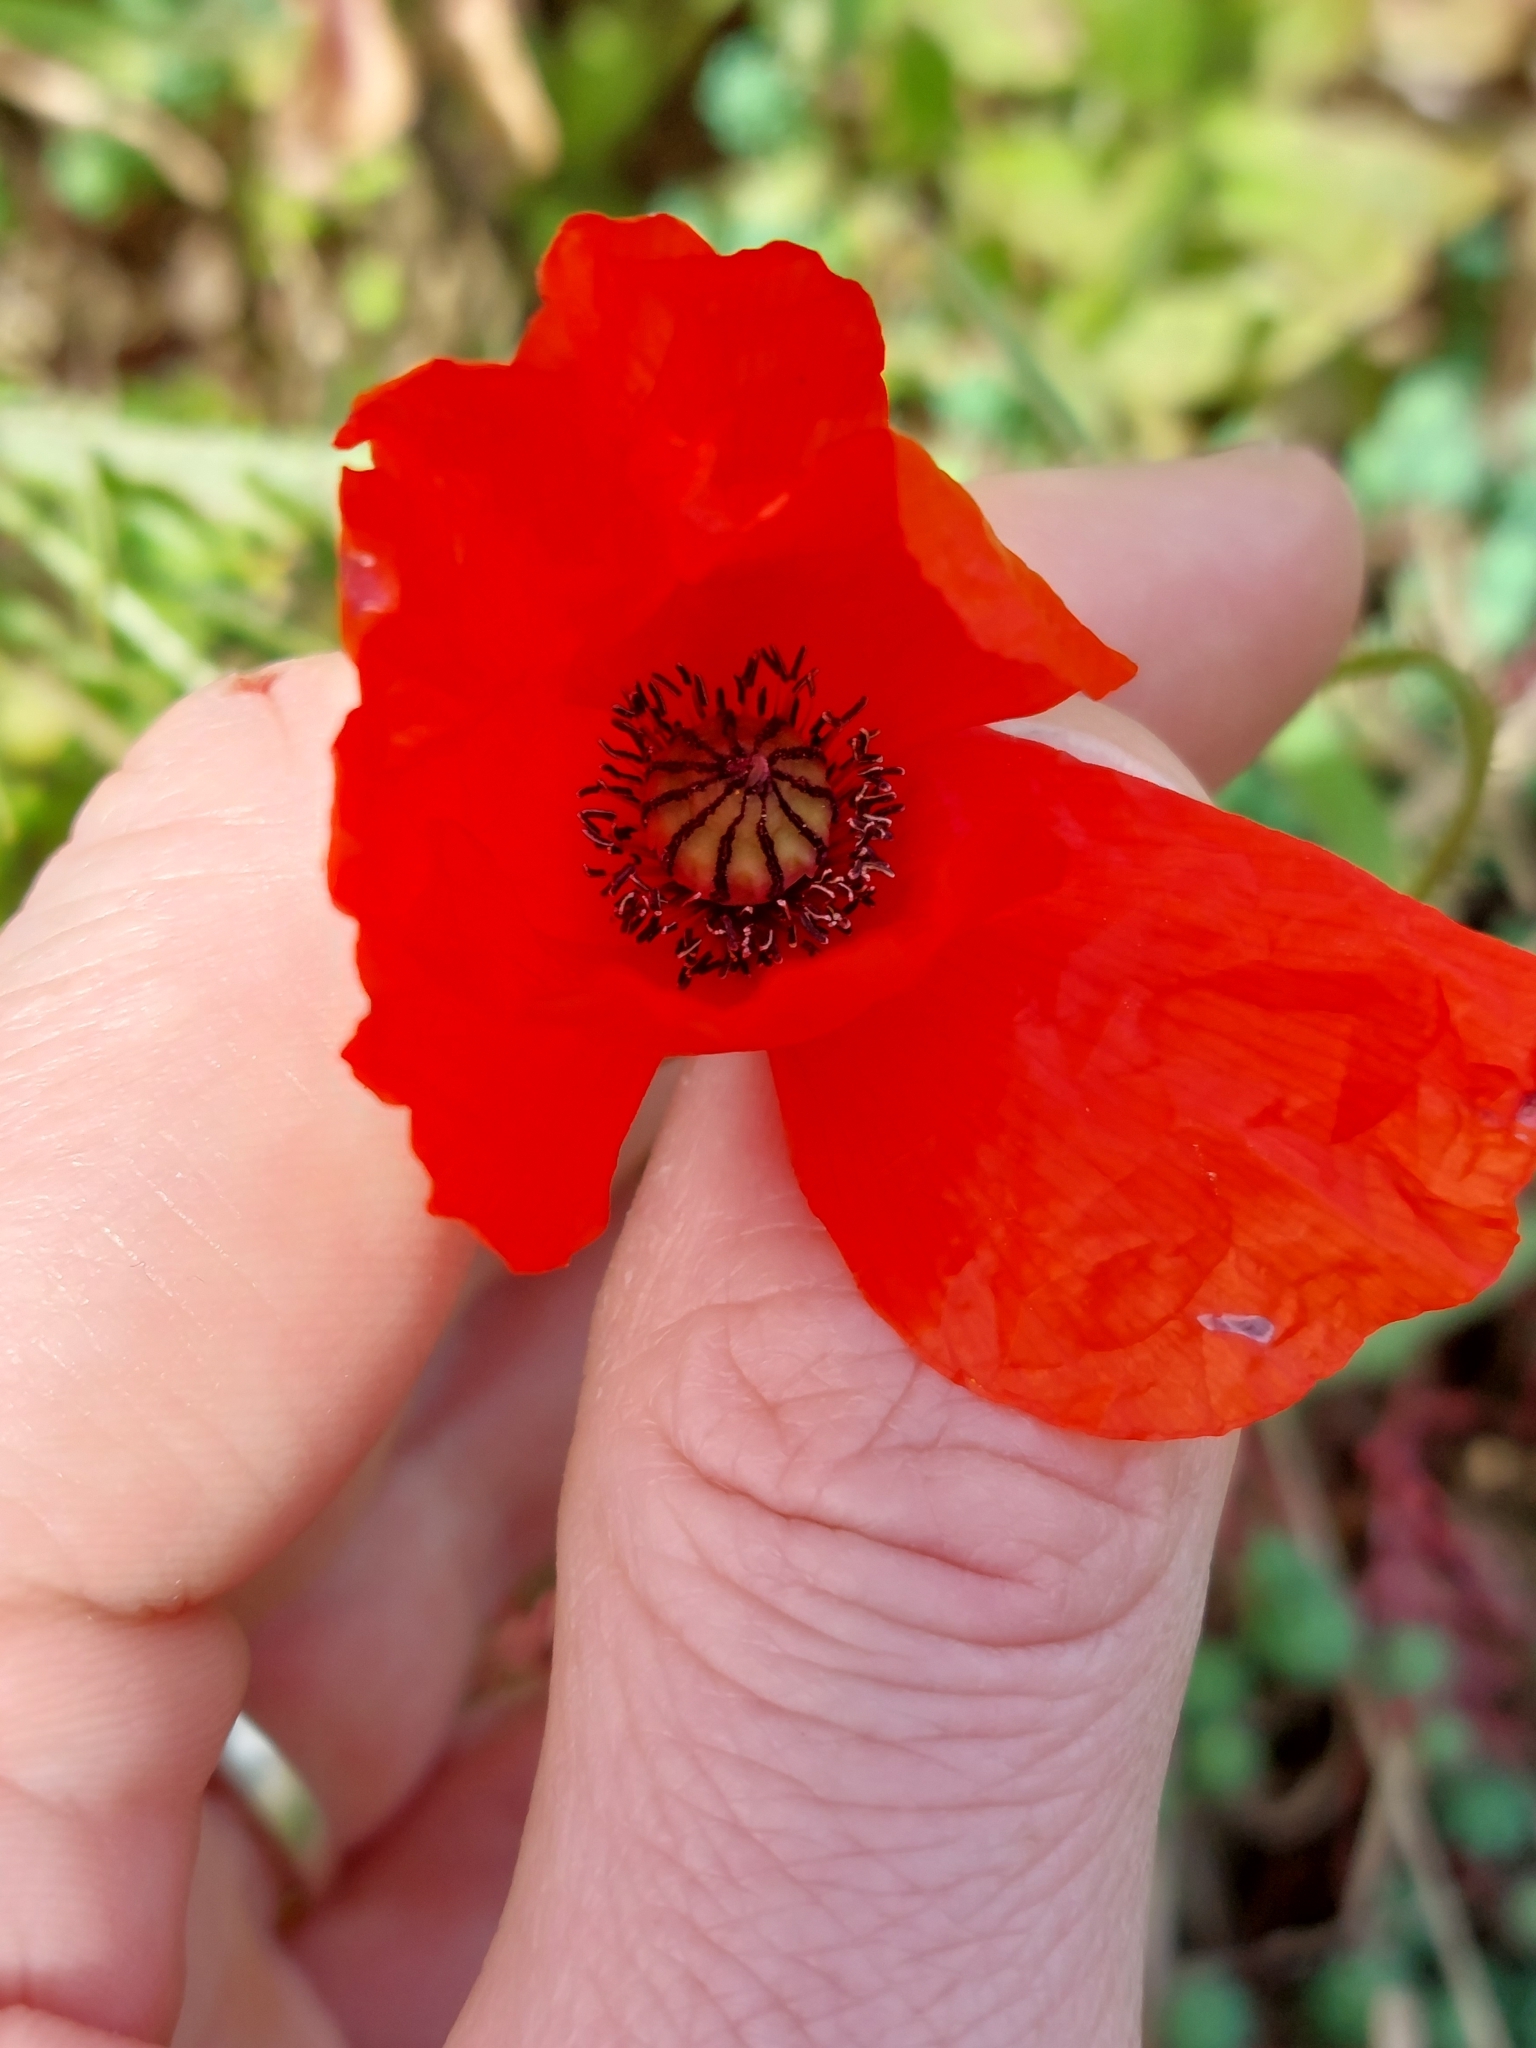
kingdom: Plantae
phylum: Tracheophyta
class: Magnoliopsida
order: Ranunculales
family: Papaveraceae
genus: Papaver
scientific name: Papaver rhoeas
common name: Corn poppy
